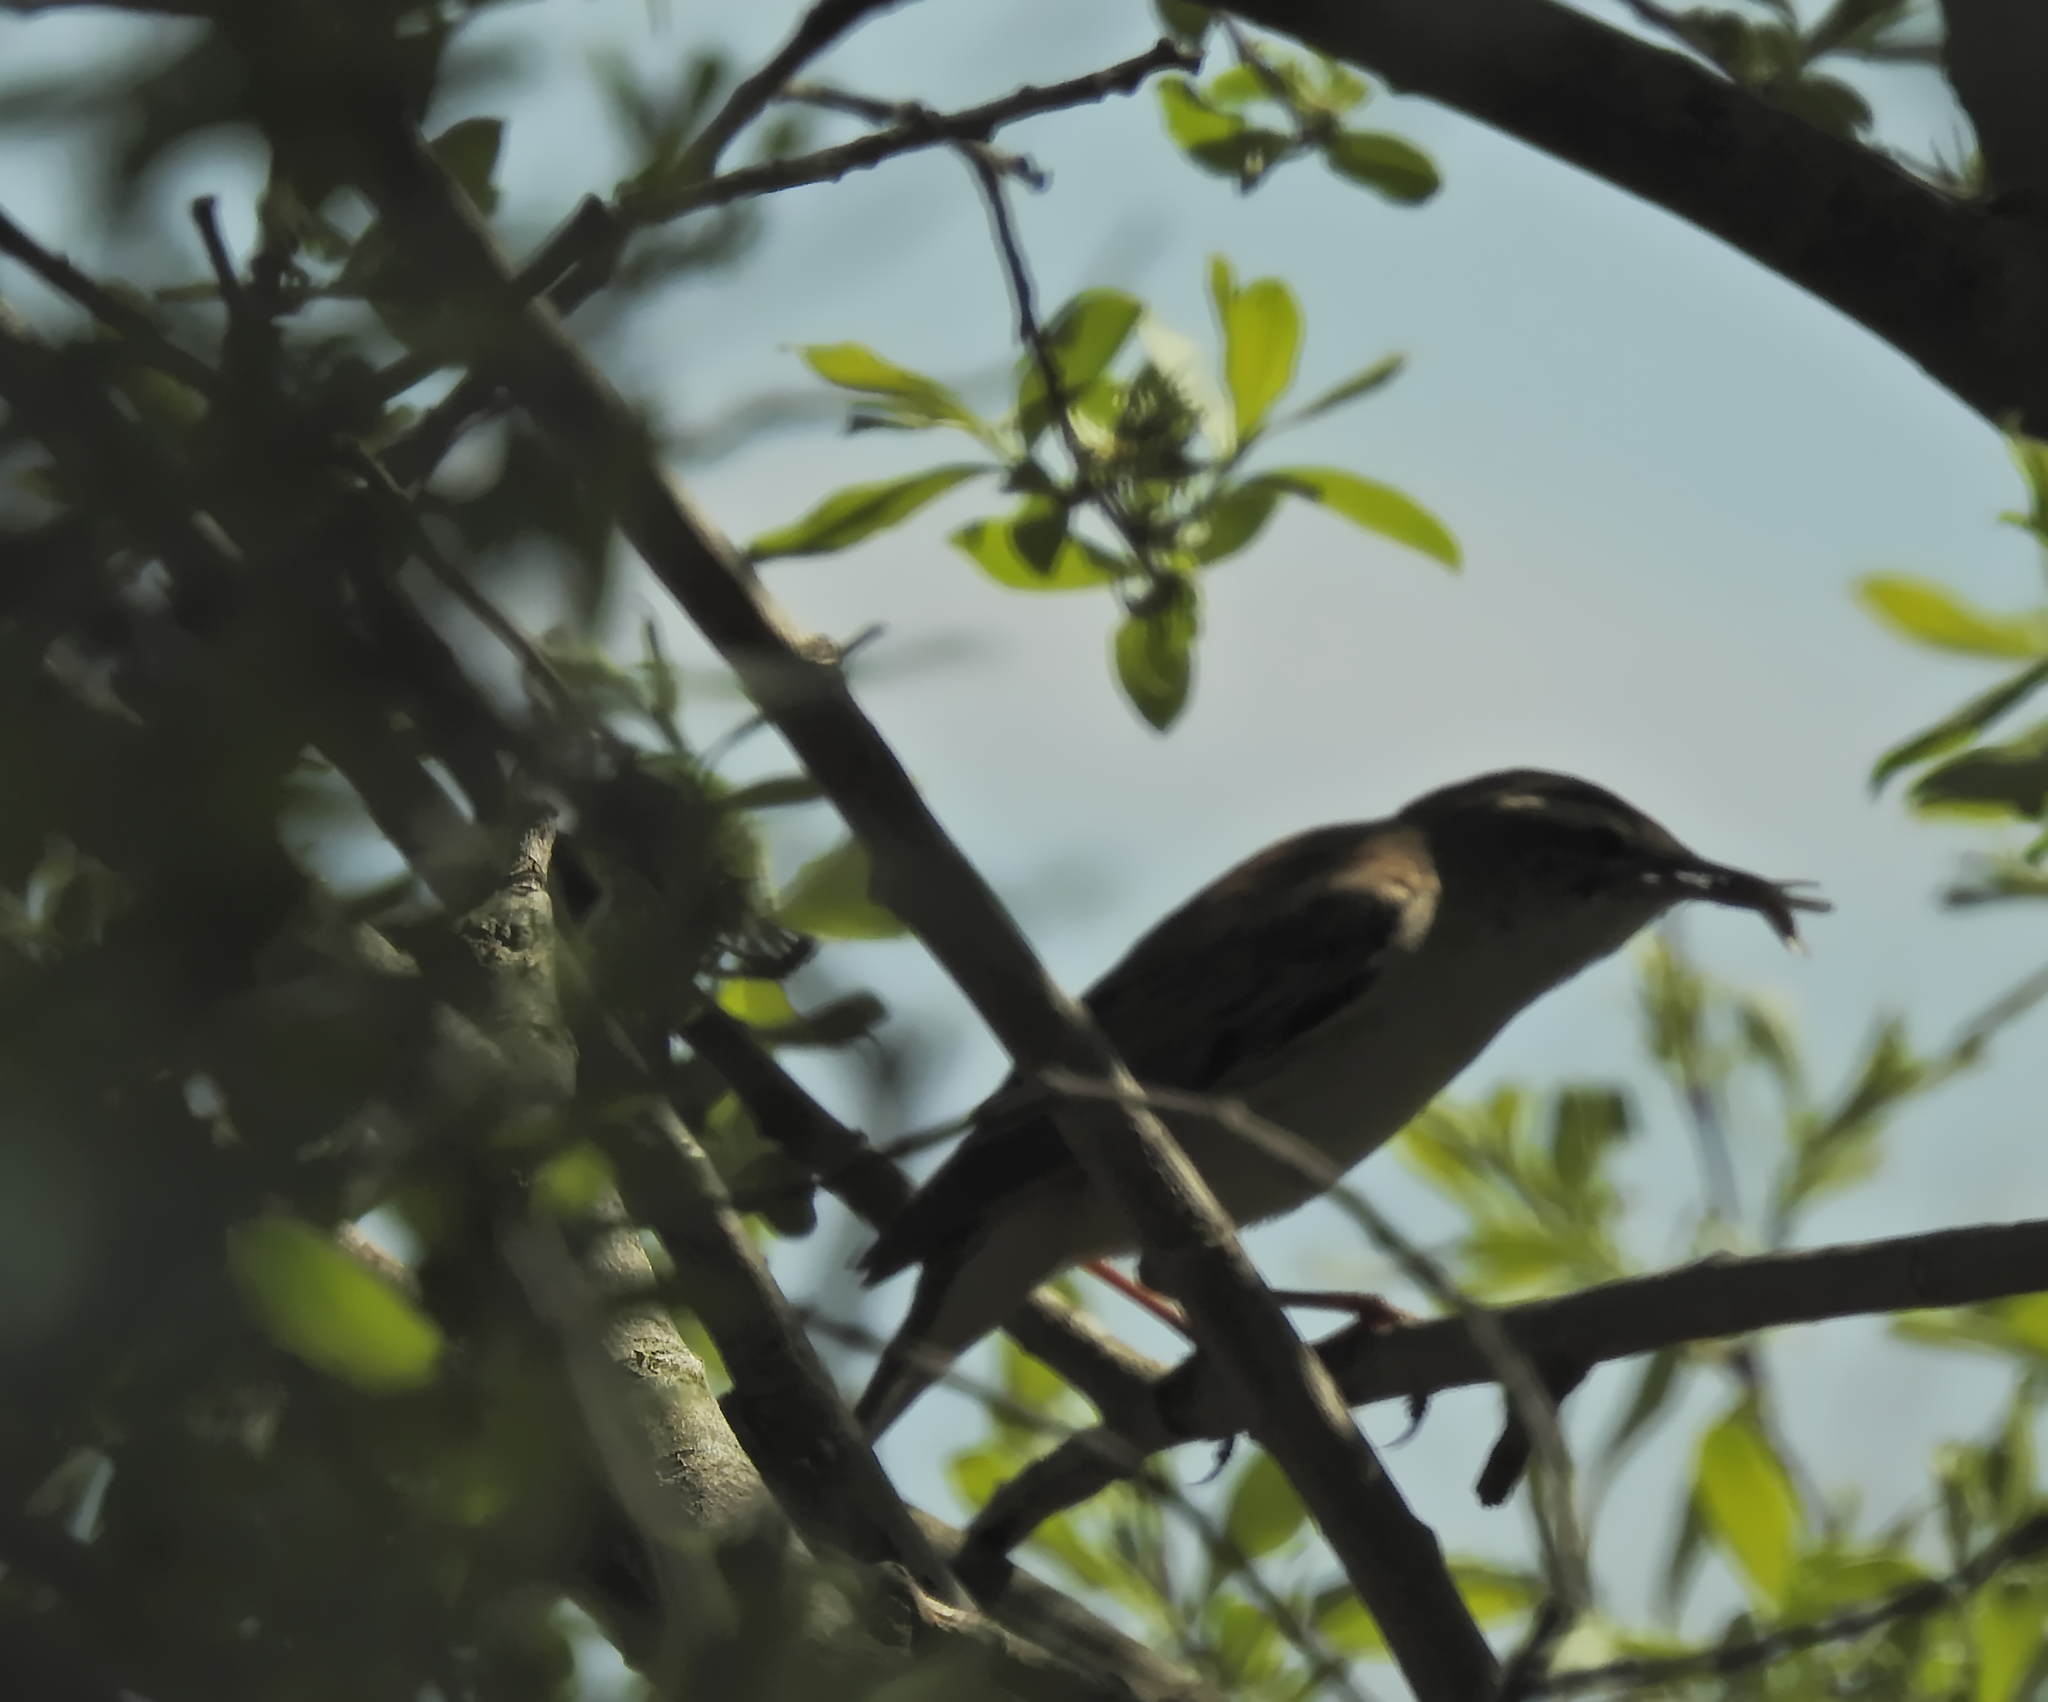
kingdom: Animalia
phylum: Chordata
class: Aves
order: Passeriformes
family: Acrocephalidae
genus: Acrocephalus
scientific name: Acrocephalus schoenobaenus
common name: Sedge warbler
